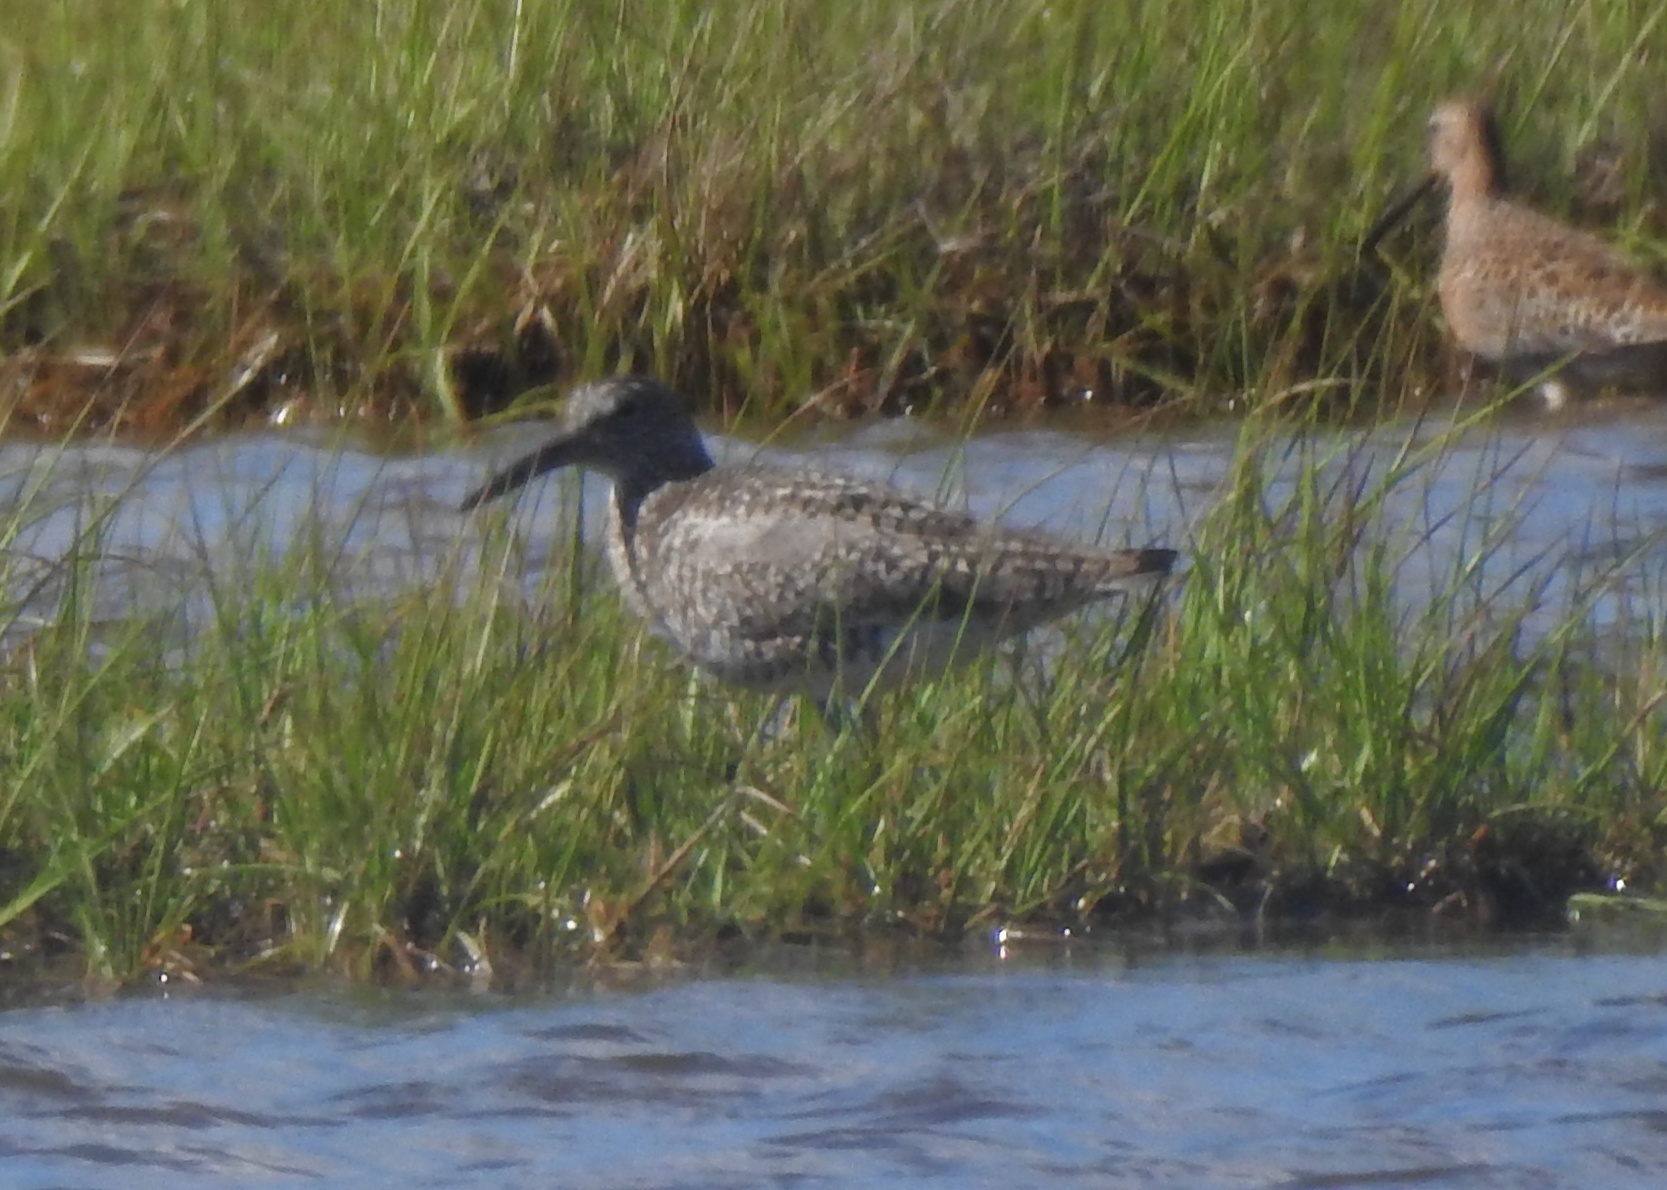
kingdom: Animalia
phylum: Chordata
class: Aves
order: Charadriiformes
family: Scolopacidae
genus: Tringa
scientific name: Tringa semipalmata
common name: Willet
